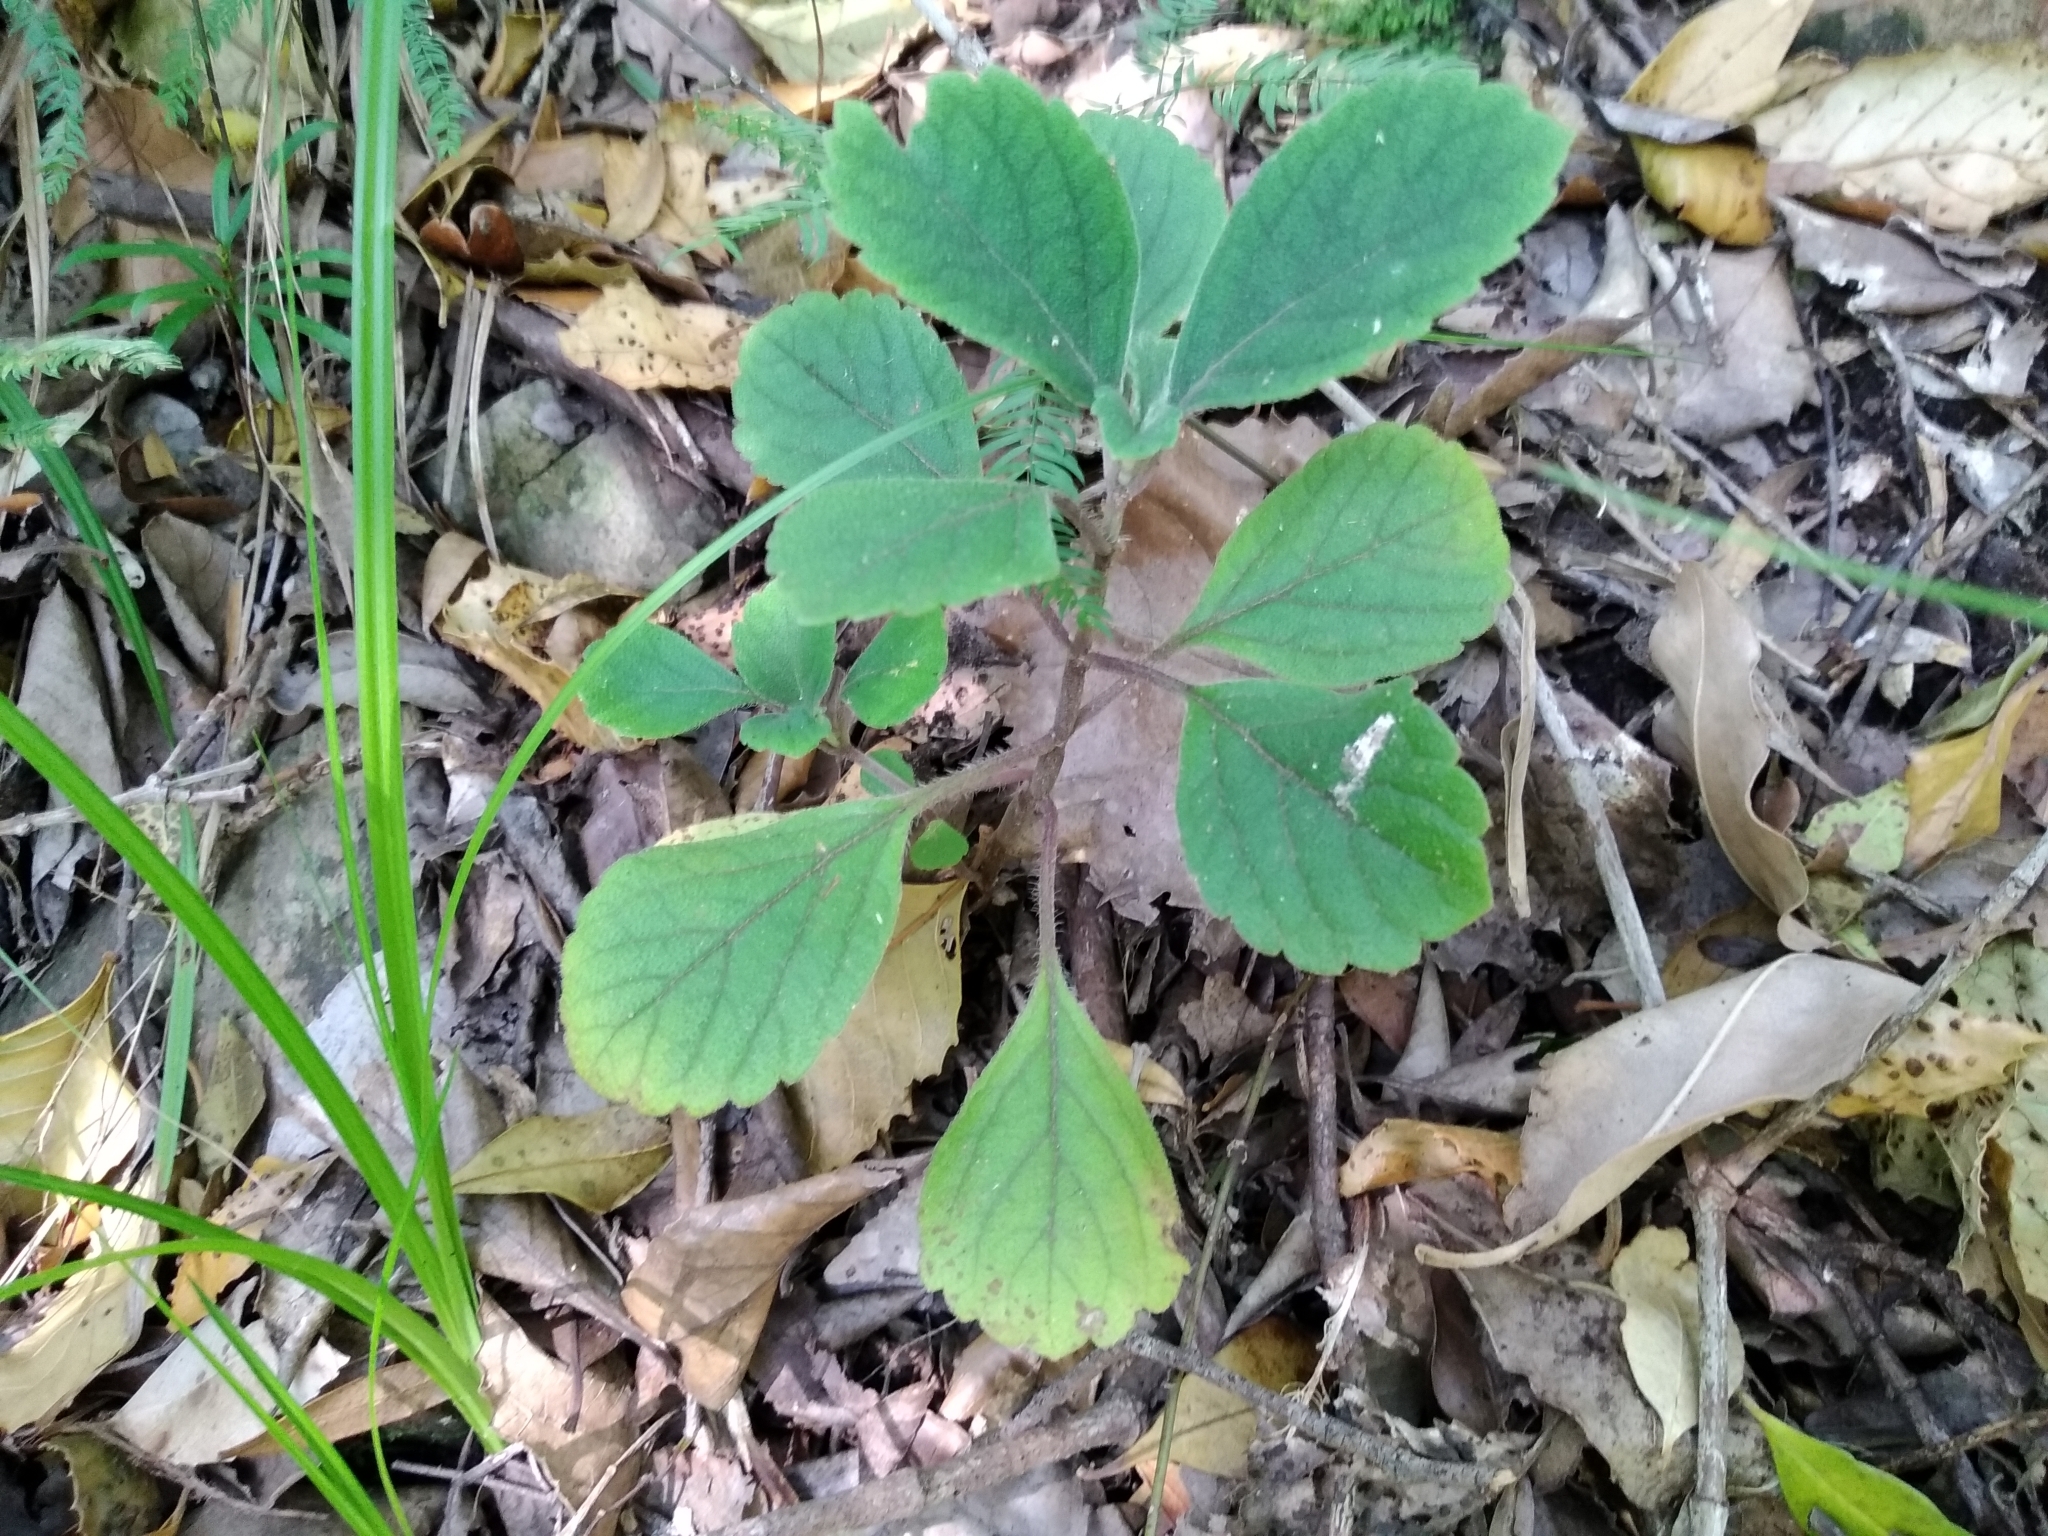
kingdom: Plantae
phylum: Tracheophyta
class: Magnoliopsida
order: Lamiales
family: Lamiaceae
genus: Plectranthus
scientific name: Plectranthus malvinus
